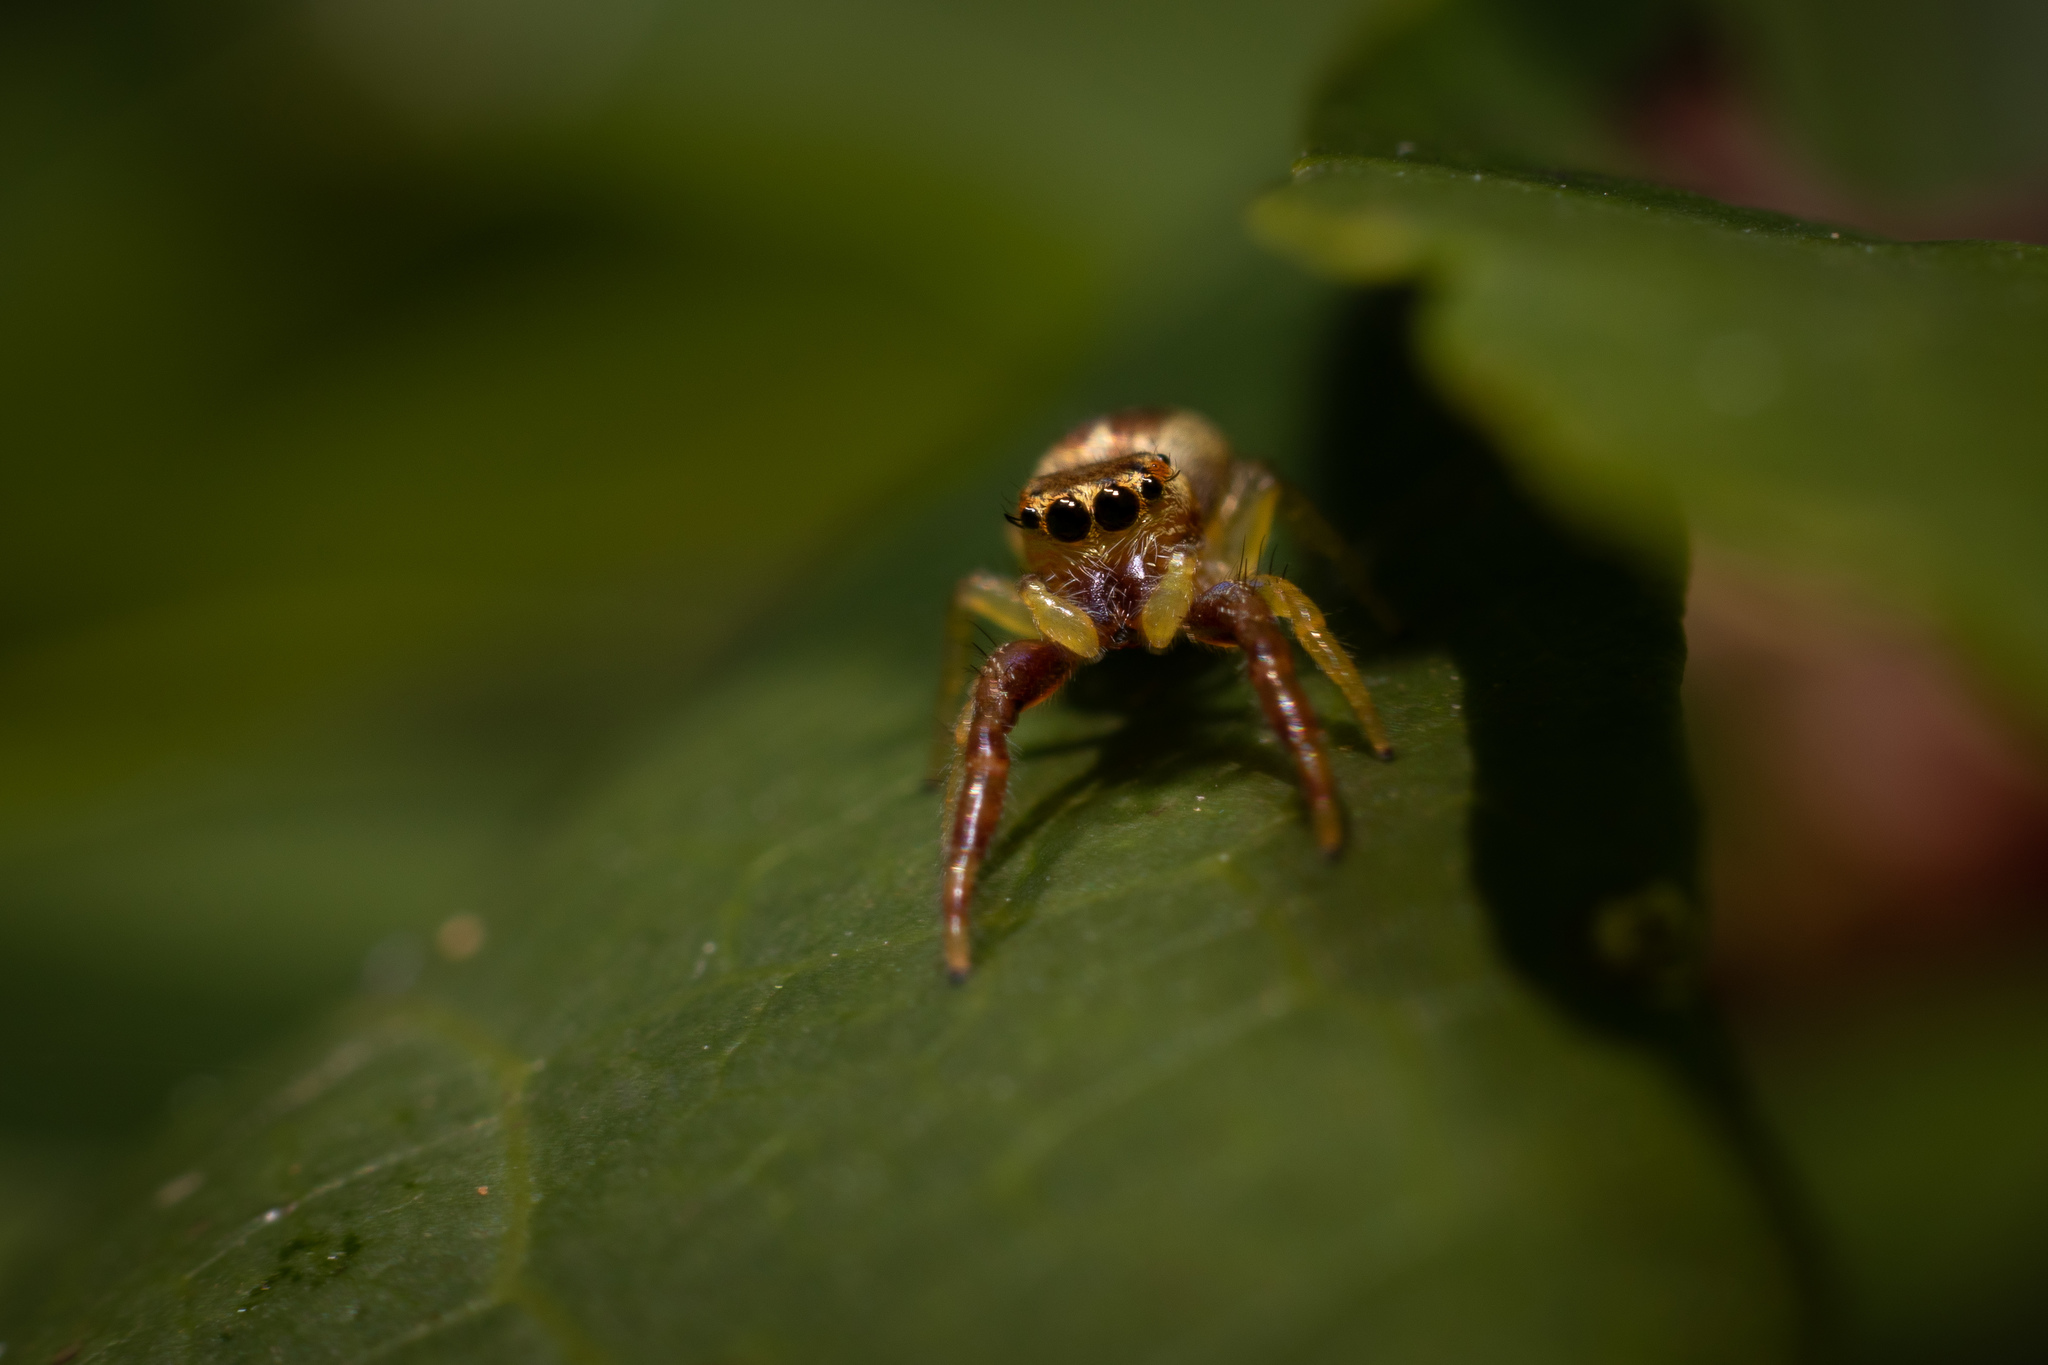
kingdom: Animalia
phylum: Arthropoda
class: Arachnida
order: Araneae
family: Salticidae
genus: Hentzia
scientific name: Hentzia palmarum
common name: Common hentz jumping spider
